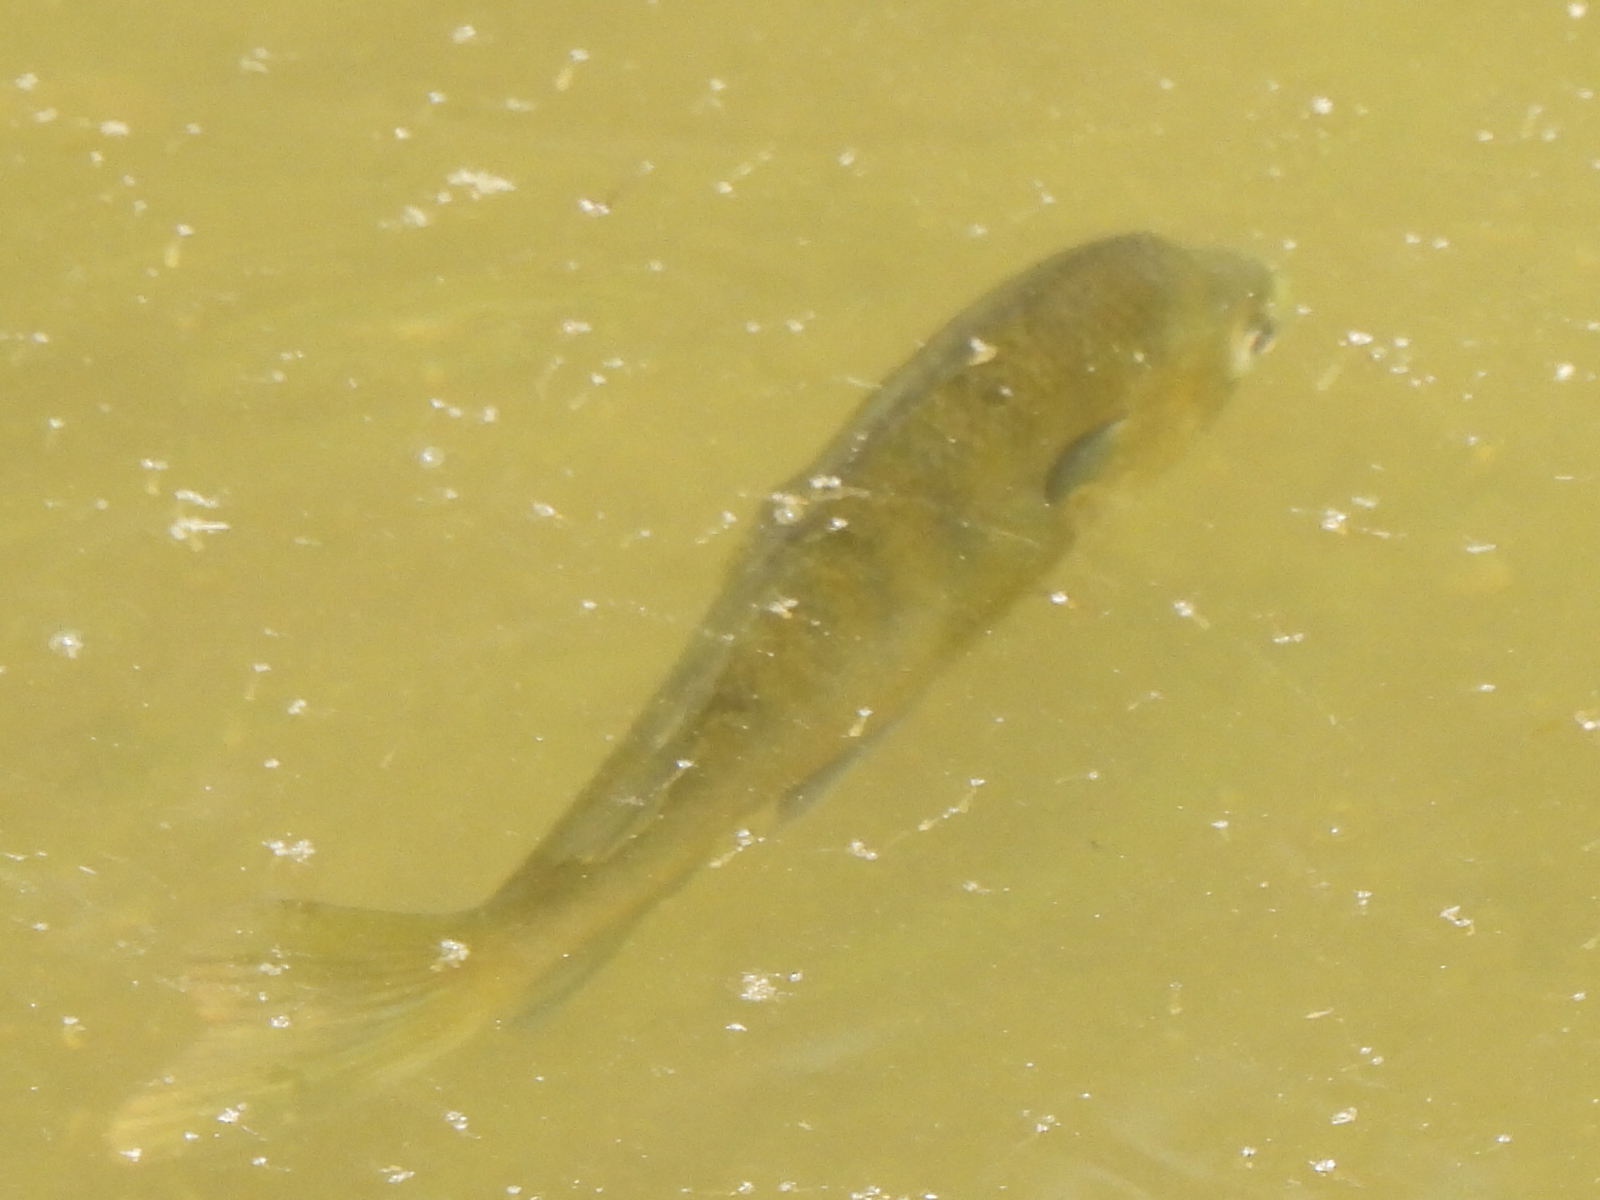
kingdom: Animalia
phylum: Chordata
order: Perciformes
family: Centrarchidae
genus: Lepomis
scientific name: Lepomis macrochirus
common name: Bluegill
